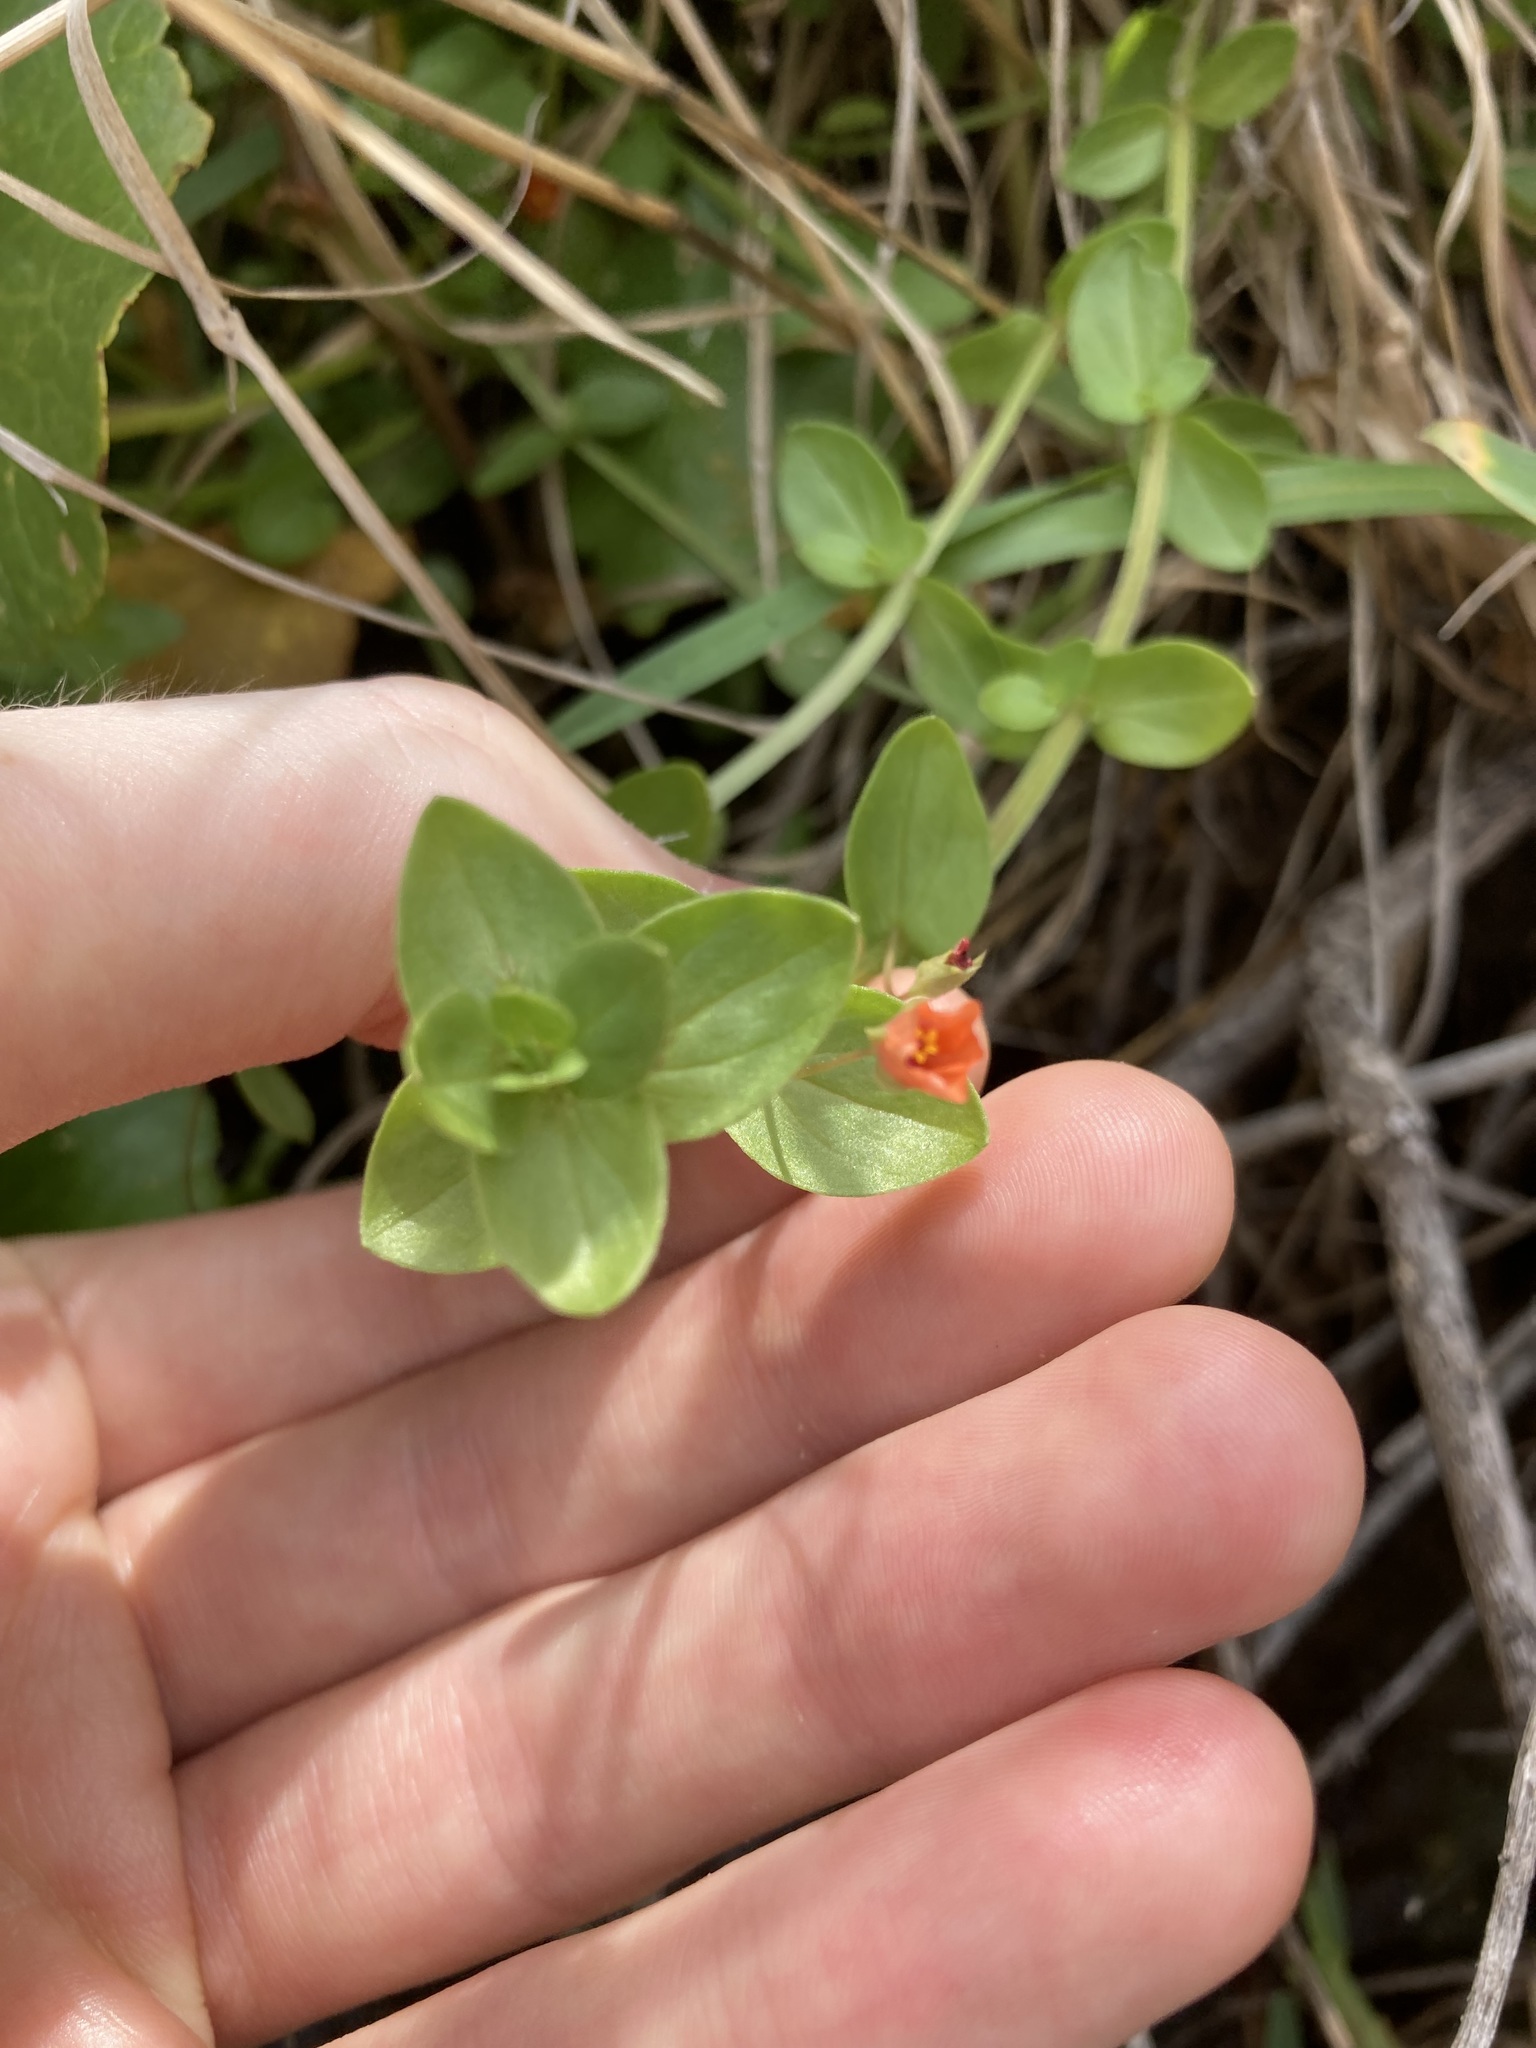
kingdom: Plantae
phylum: Tracheophyta
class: Magnoliopsida
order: Ericales
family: Primulaceae
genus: Lysimachia
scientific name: Lysimachia arvensis
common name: Scarlet pimpernel
